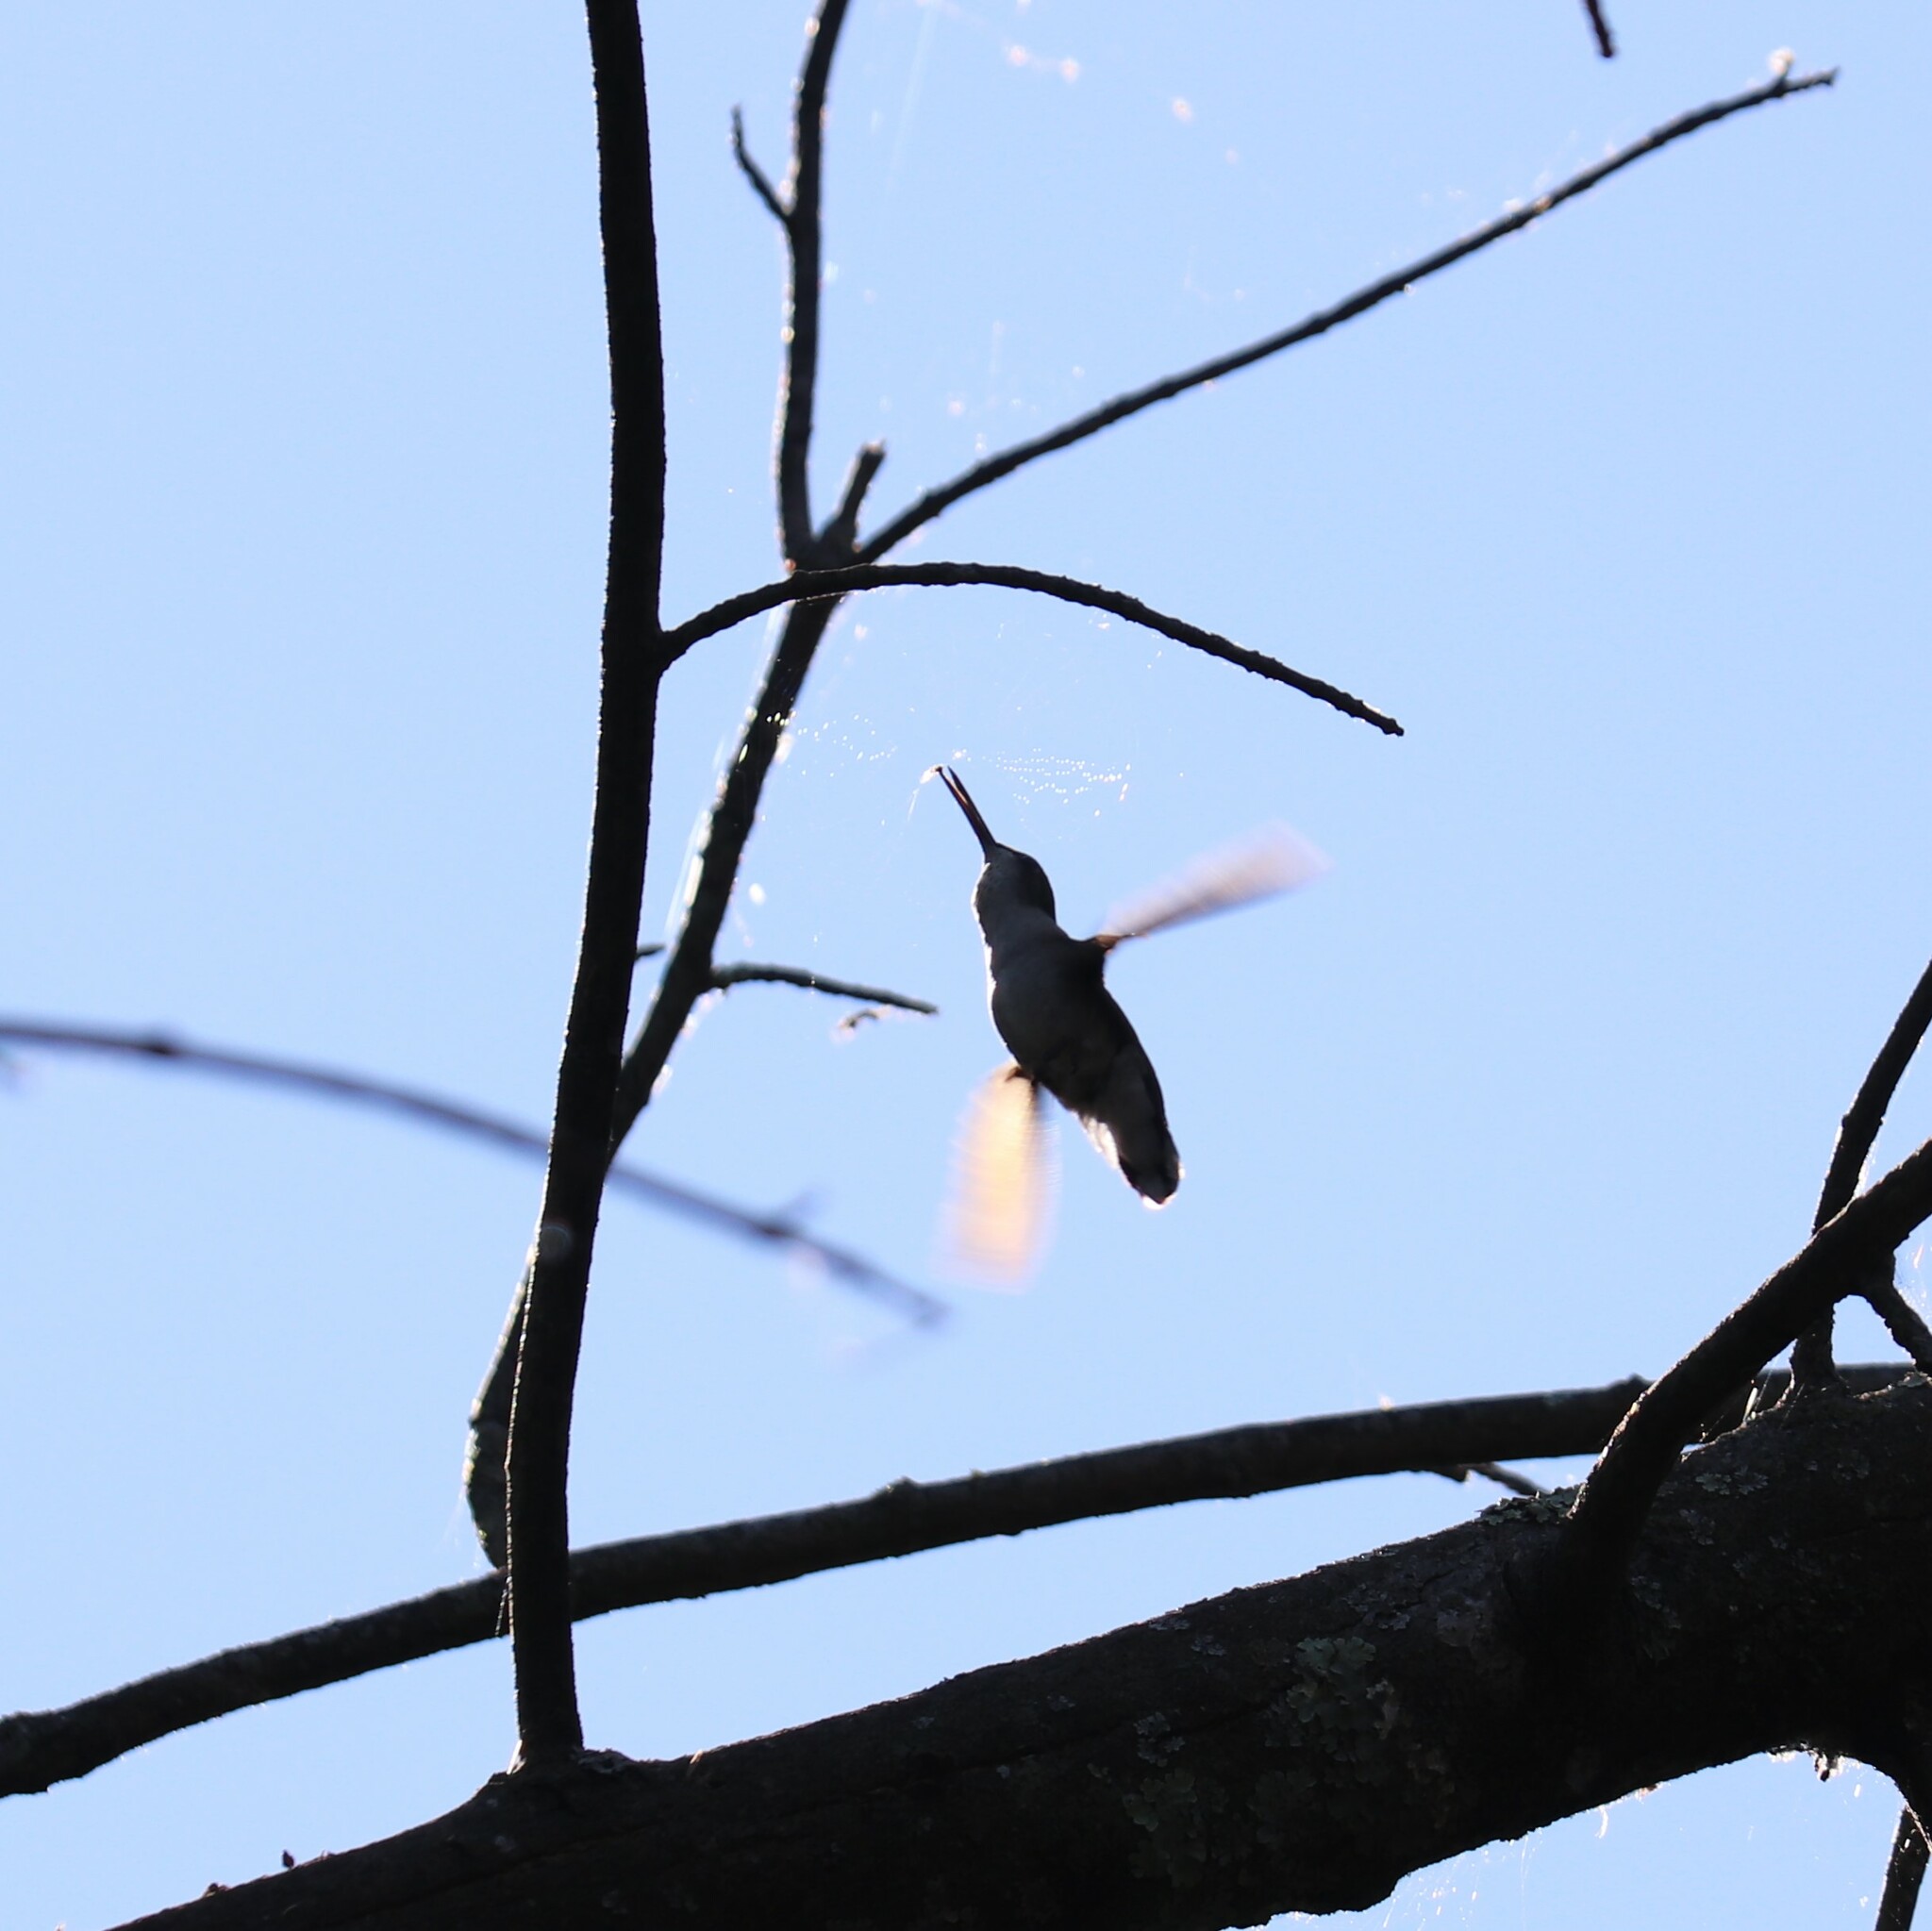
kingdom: Animalia
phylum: Chordata
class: Aves
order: Apodiformes
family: Trochilidae
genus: Archilochus
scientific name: Archilochus colubris
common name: Ruby-throated hummingbird
